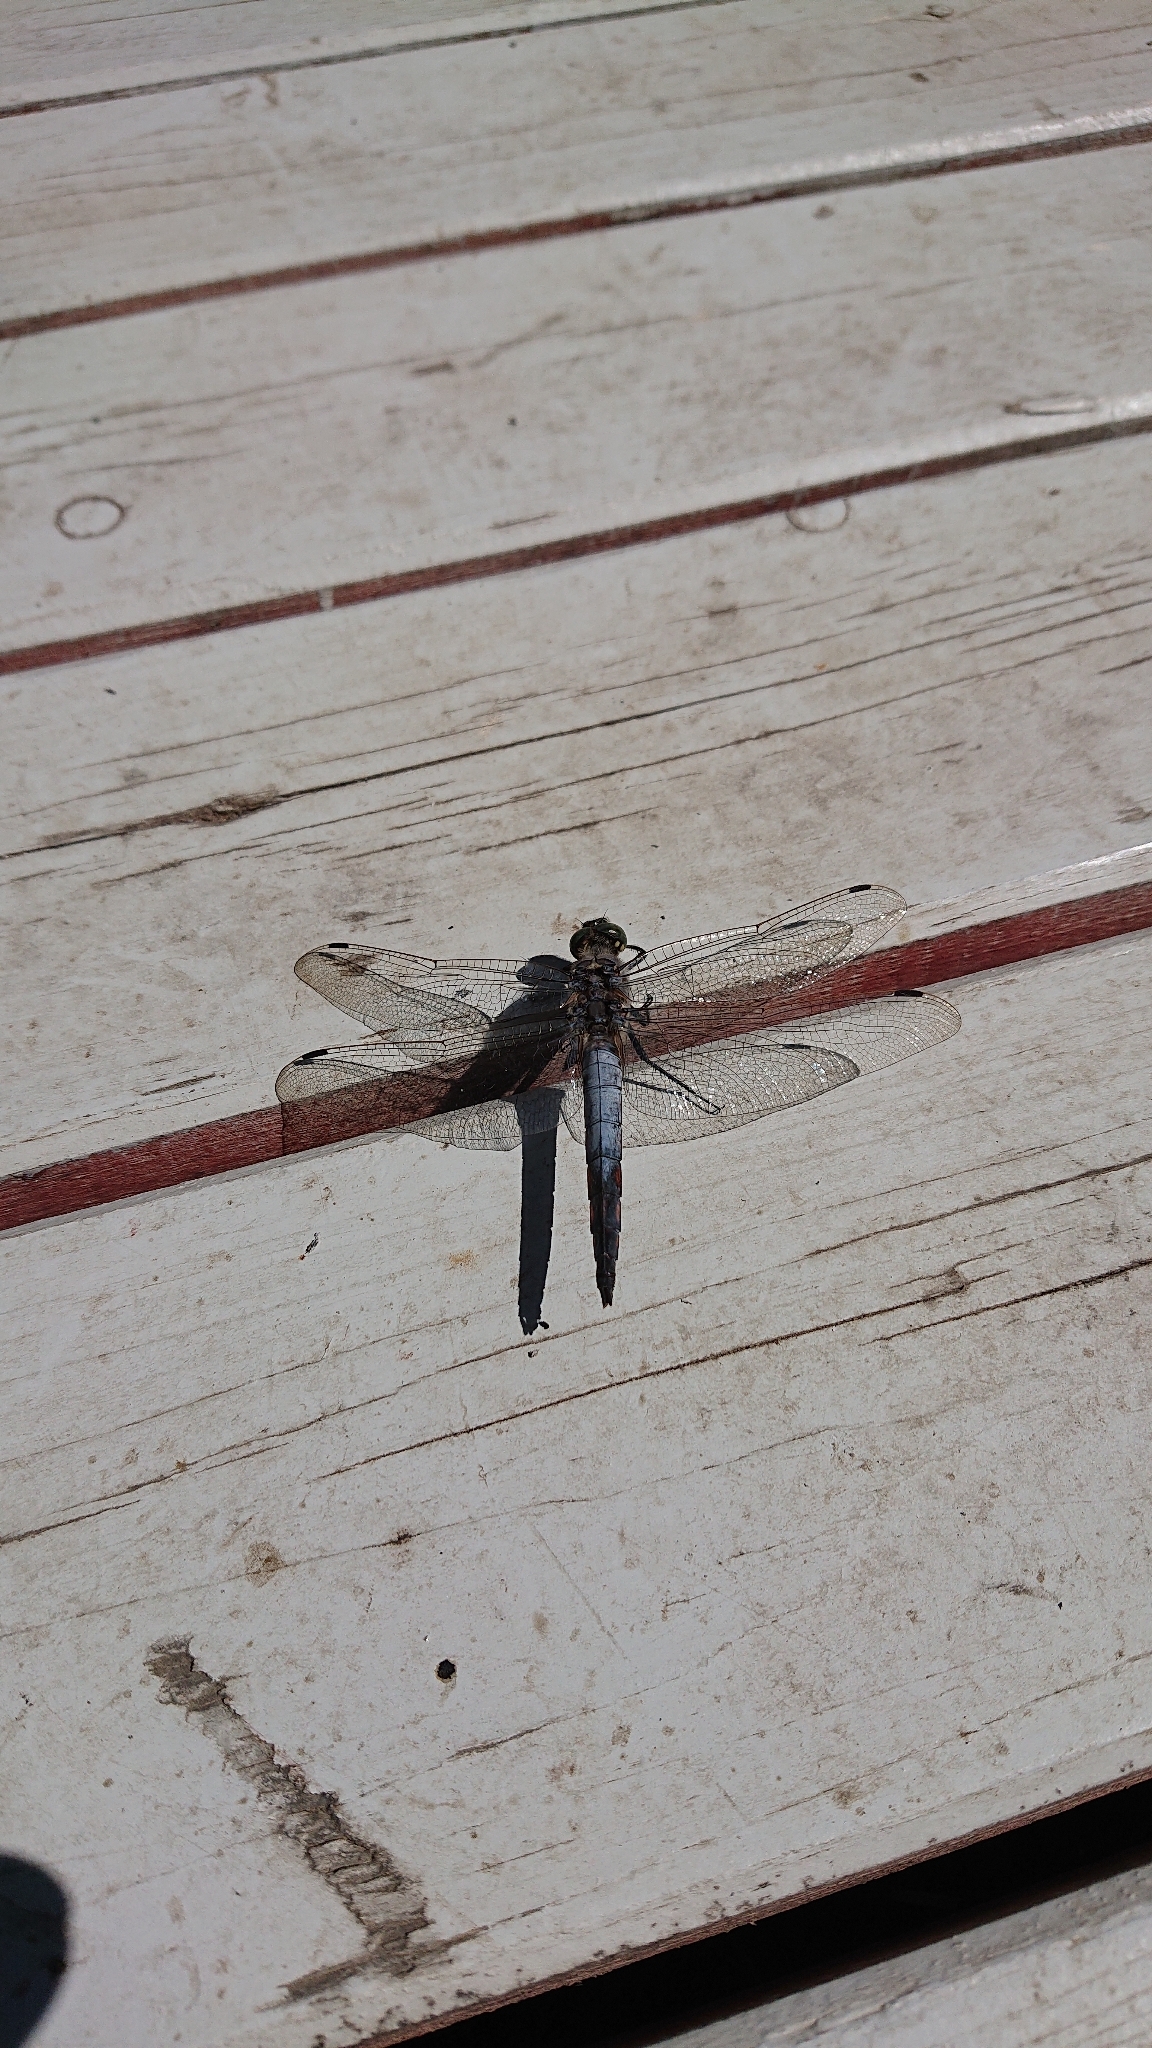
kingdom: Animalia
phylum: Arthropoda
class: Insecta
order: Odonata
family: Libellulidae
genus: Orthetrum
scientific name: Orthetrum cancellatum
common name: Black-tailed skimmer
